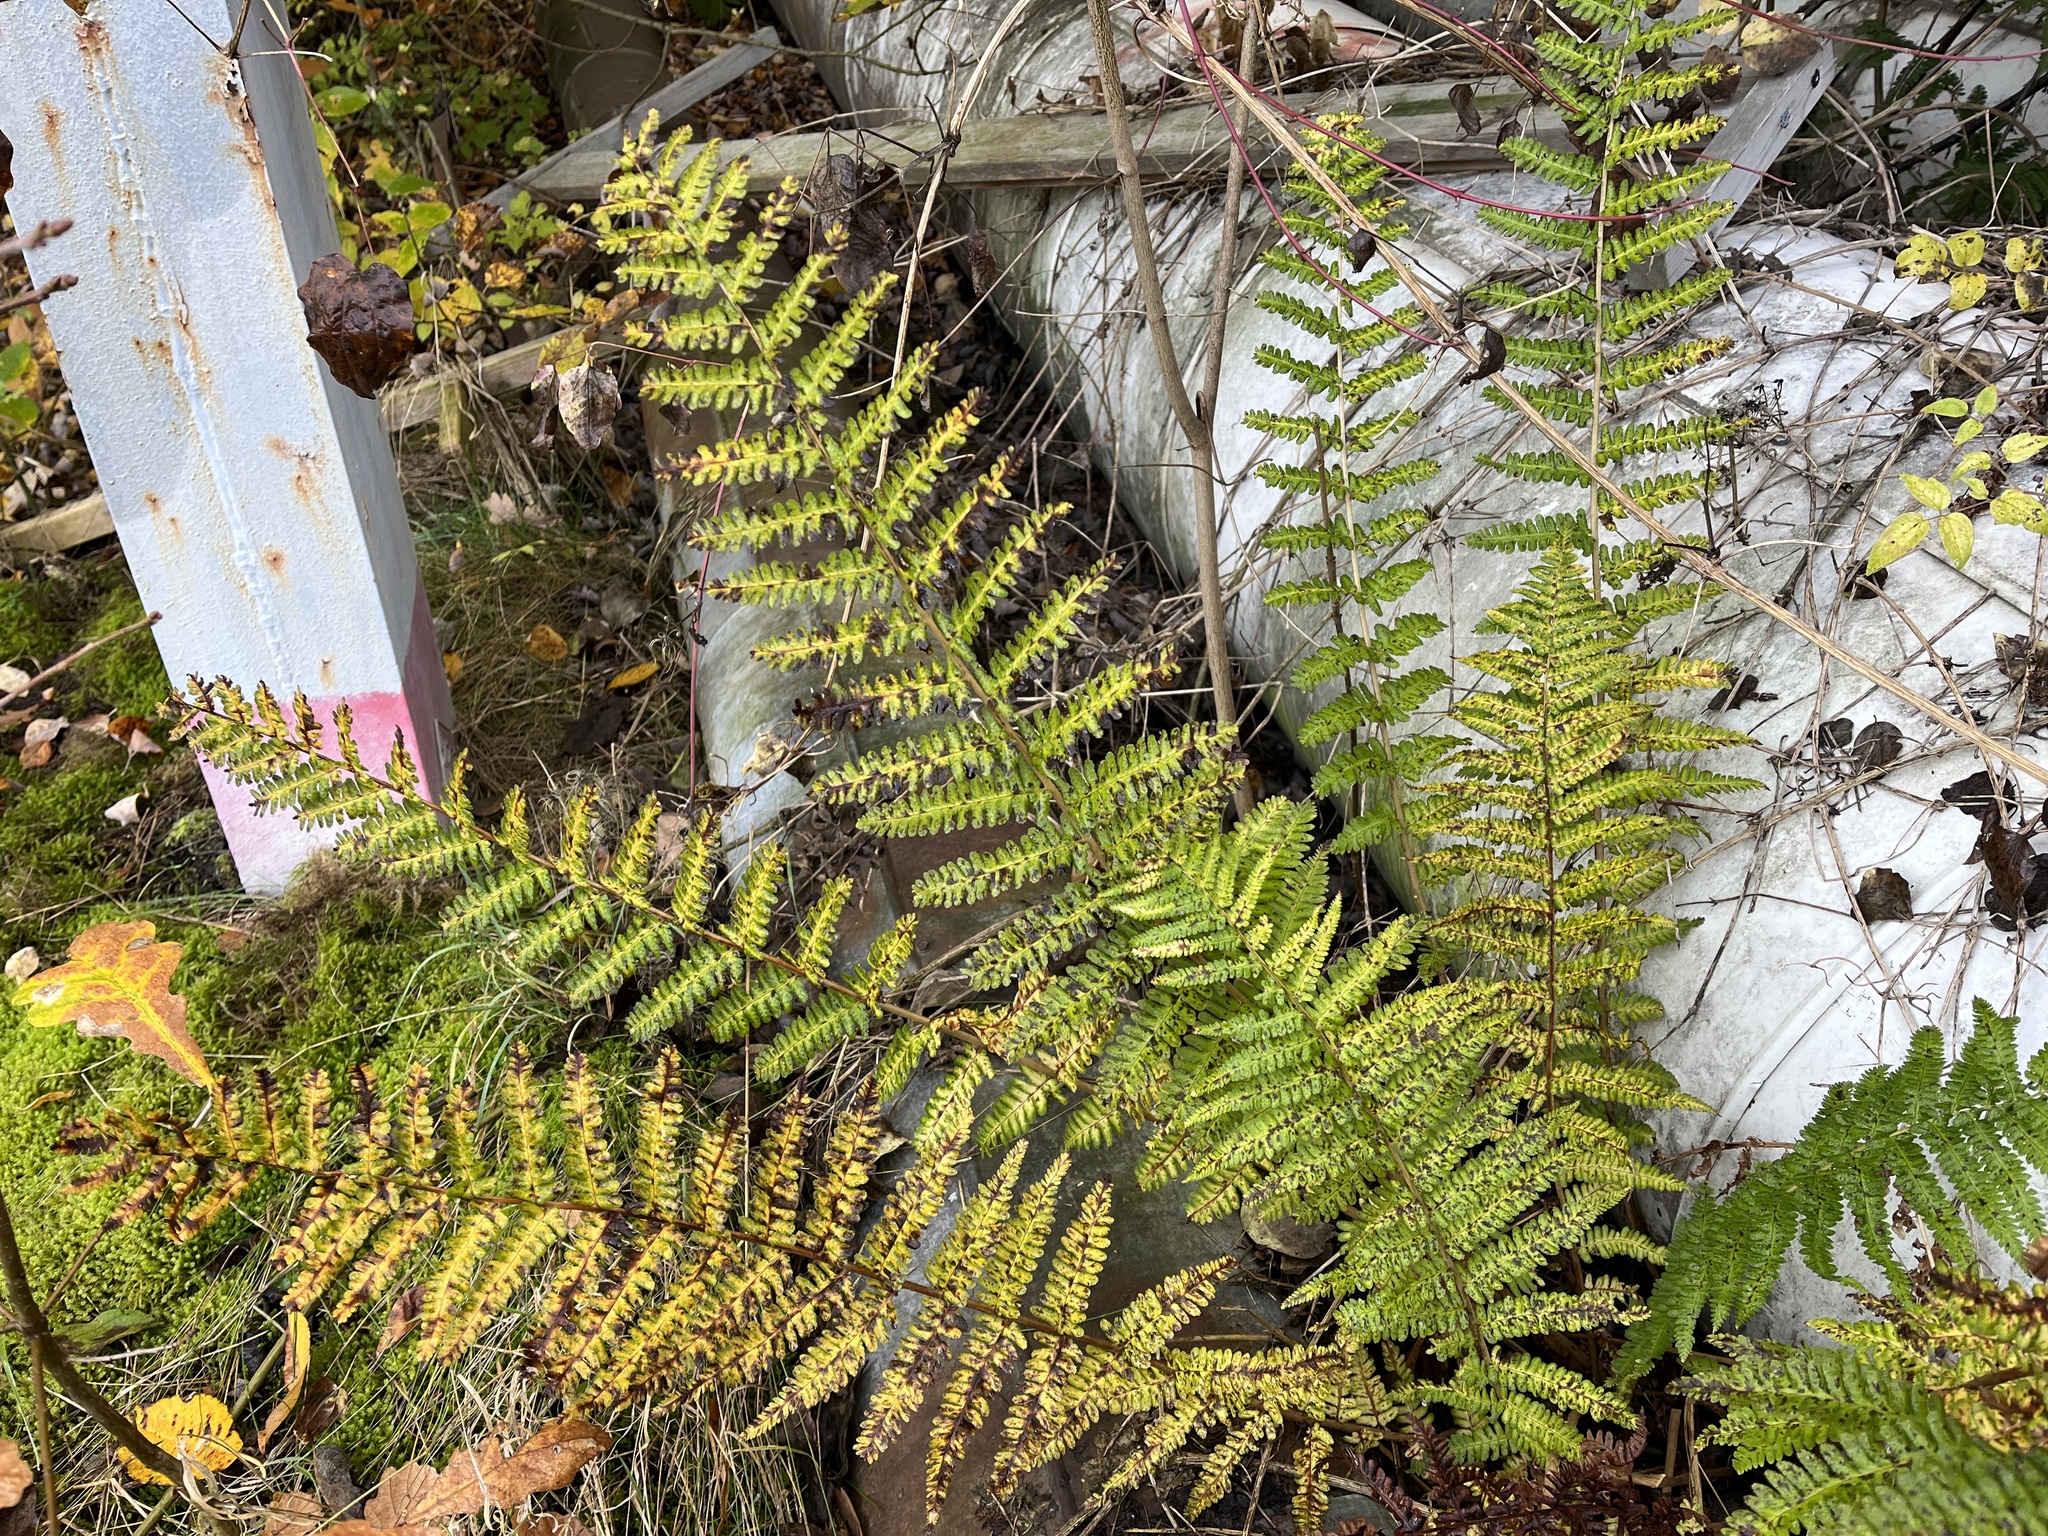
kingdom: Plantae
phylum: Tracheophyta
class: Polypodiopsida
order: Polypodiales
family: Dryopteridaceae
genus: Dryopteris
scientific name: Dryopteris filix-mas
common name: Male fern
